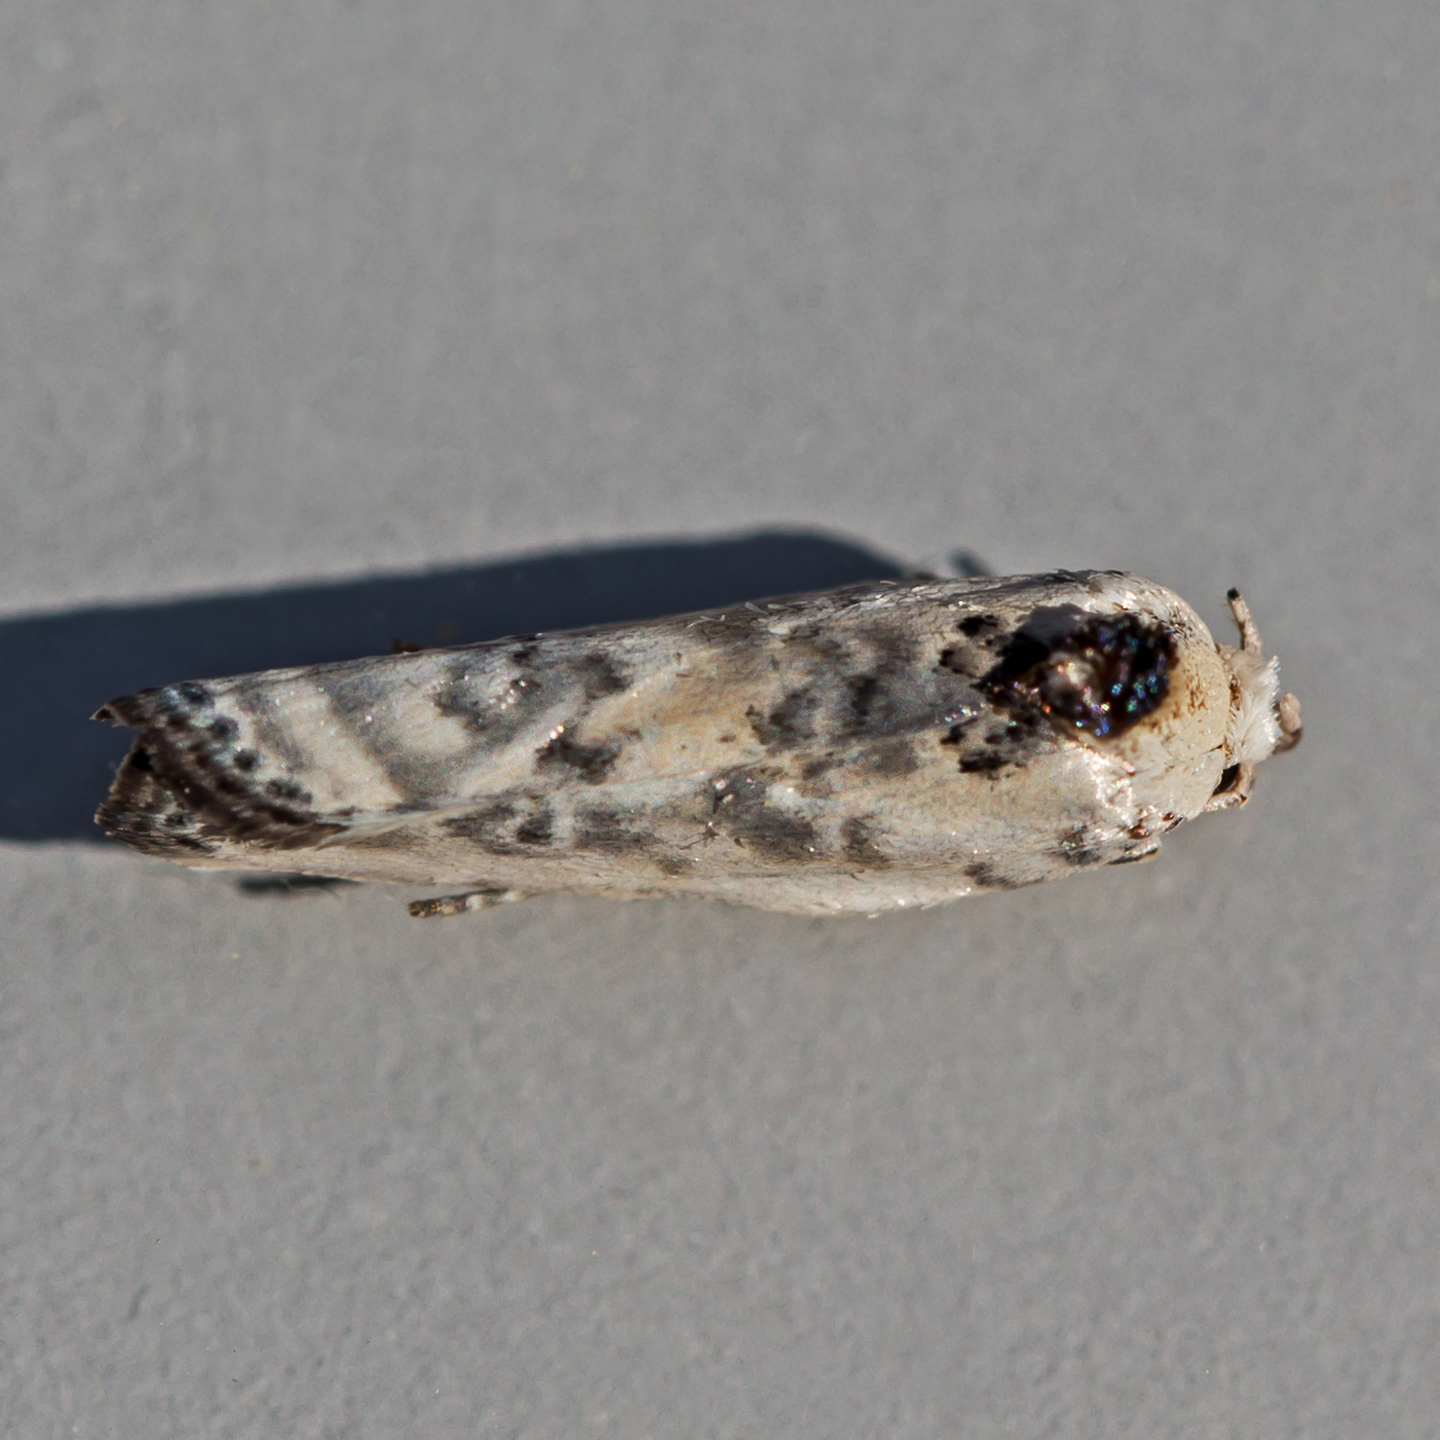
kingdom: Animalia
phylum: Arthropoda
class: Insecta
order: Lepidoptera
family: Depressariidae
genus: Antaeotricha
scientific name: Antaeotricha schlaegeri
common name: Schlaeger's fruitworm moth
